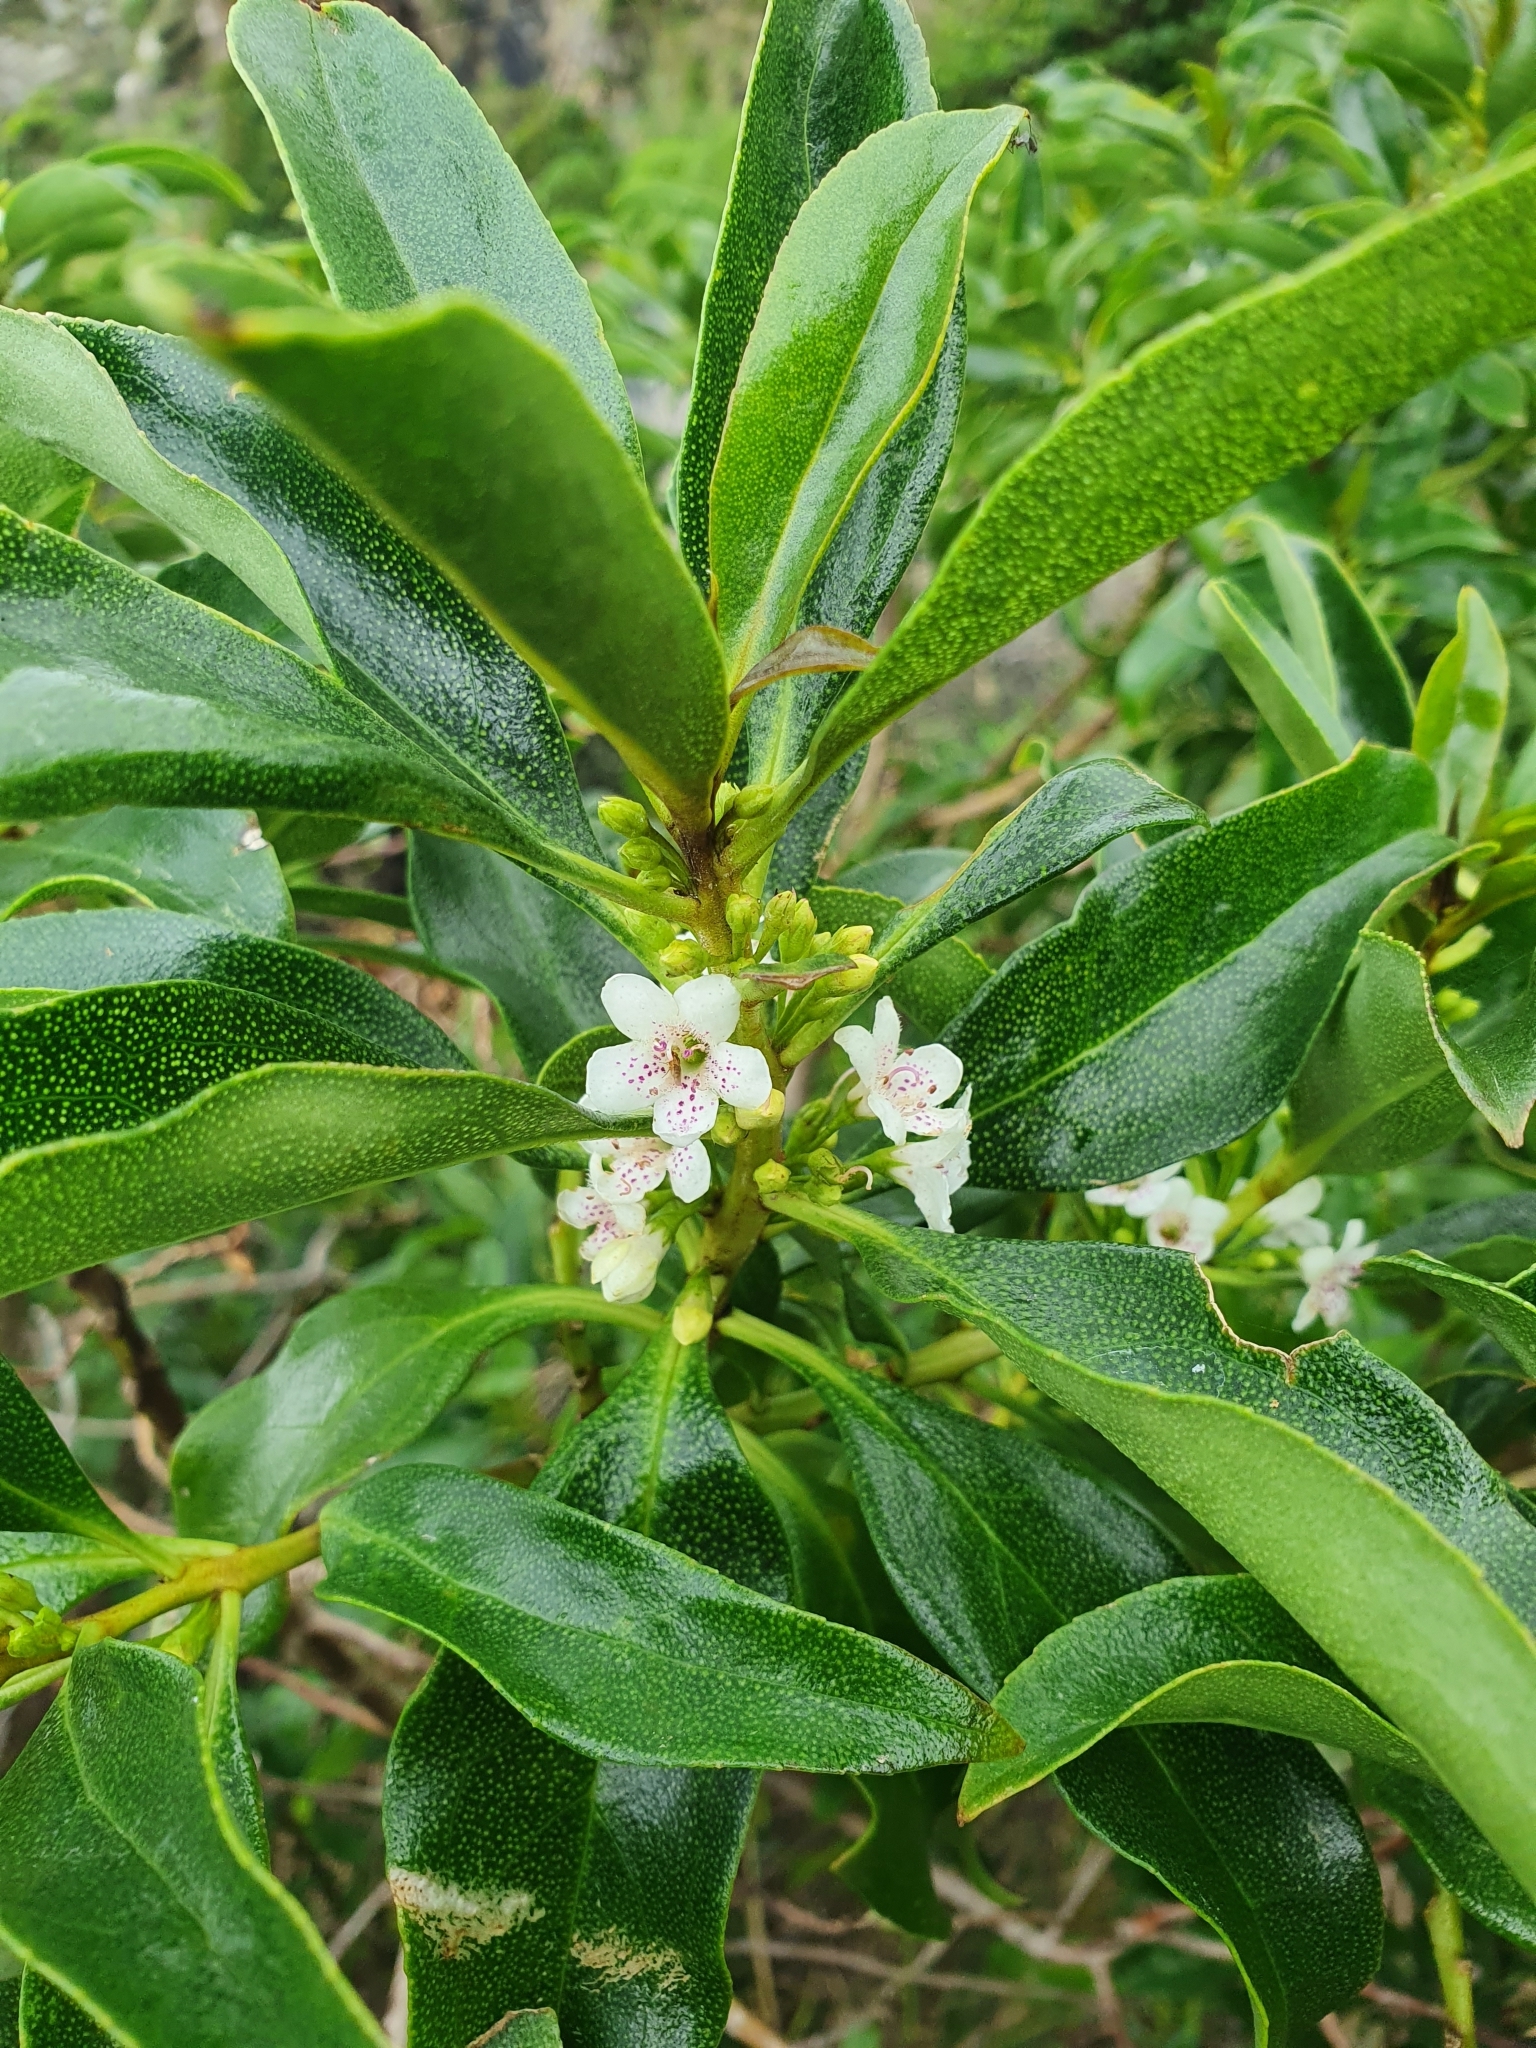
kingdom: Plantae
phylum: Tracheophyta
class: Magnoliopsida
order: Lamiales
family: Scrophulariaceae
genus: Myoporum
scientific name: Myoporum laetum
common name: Ngaio tree
